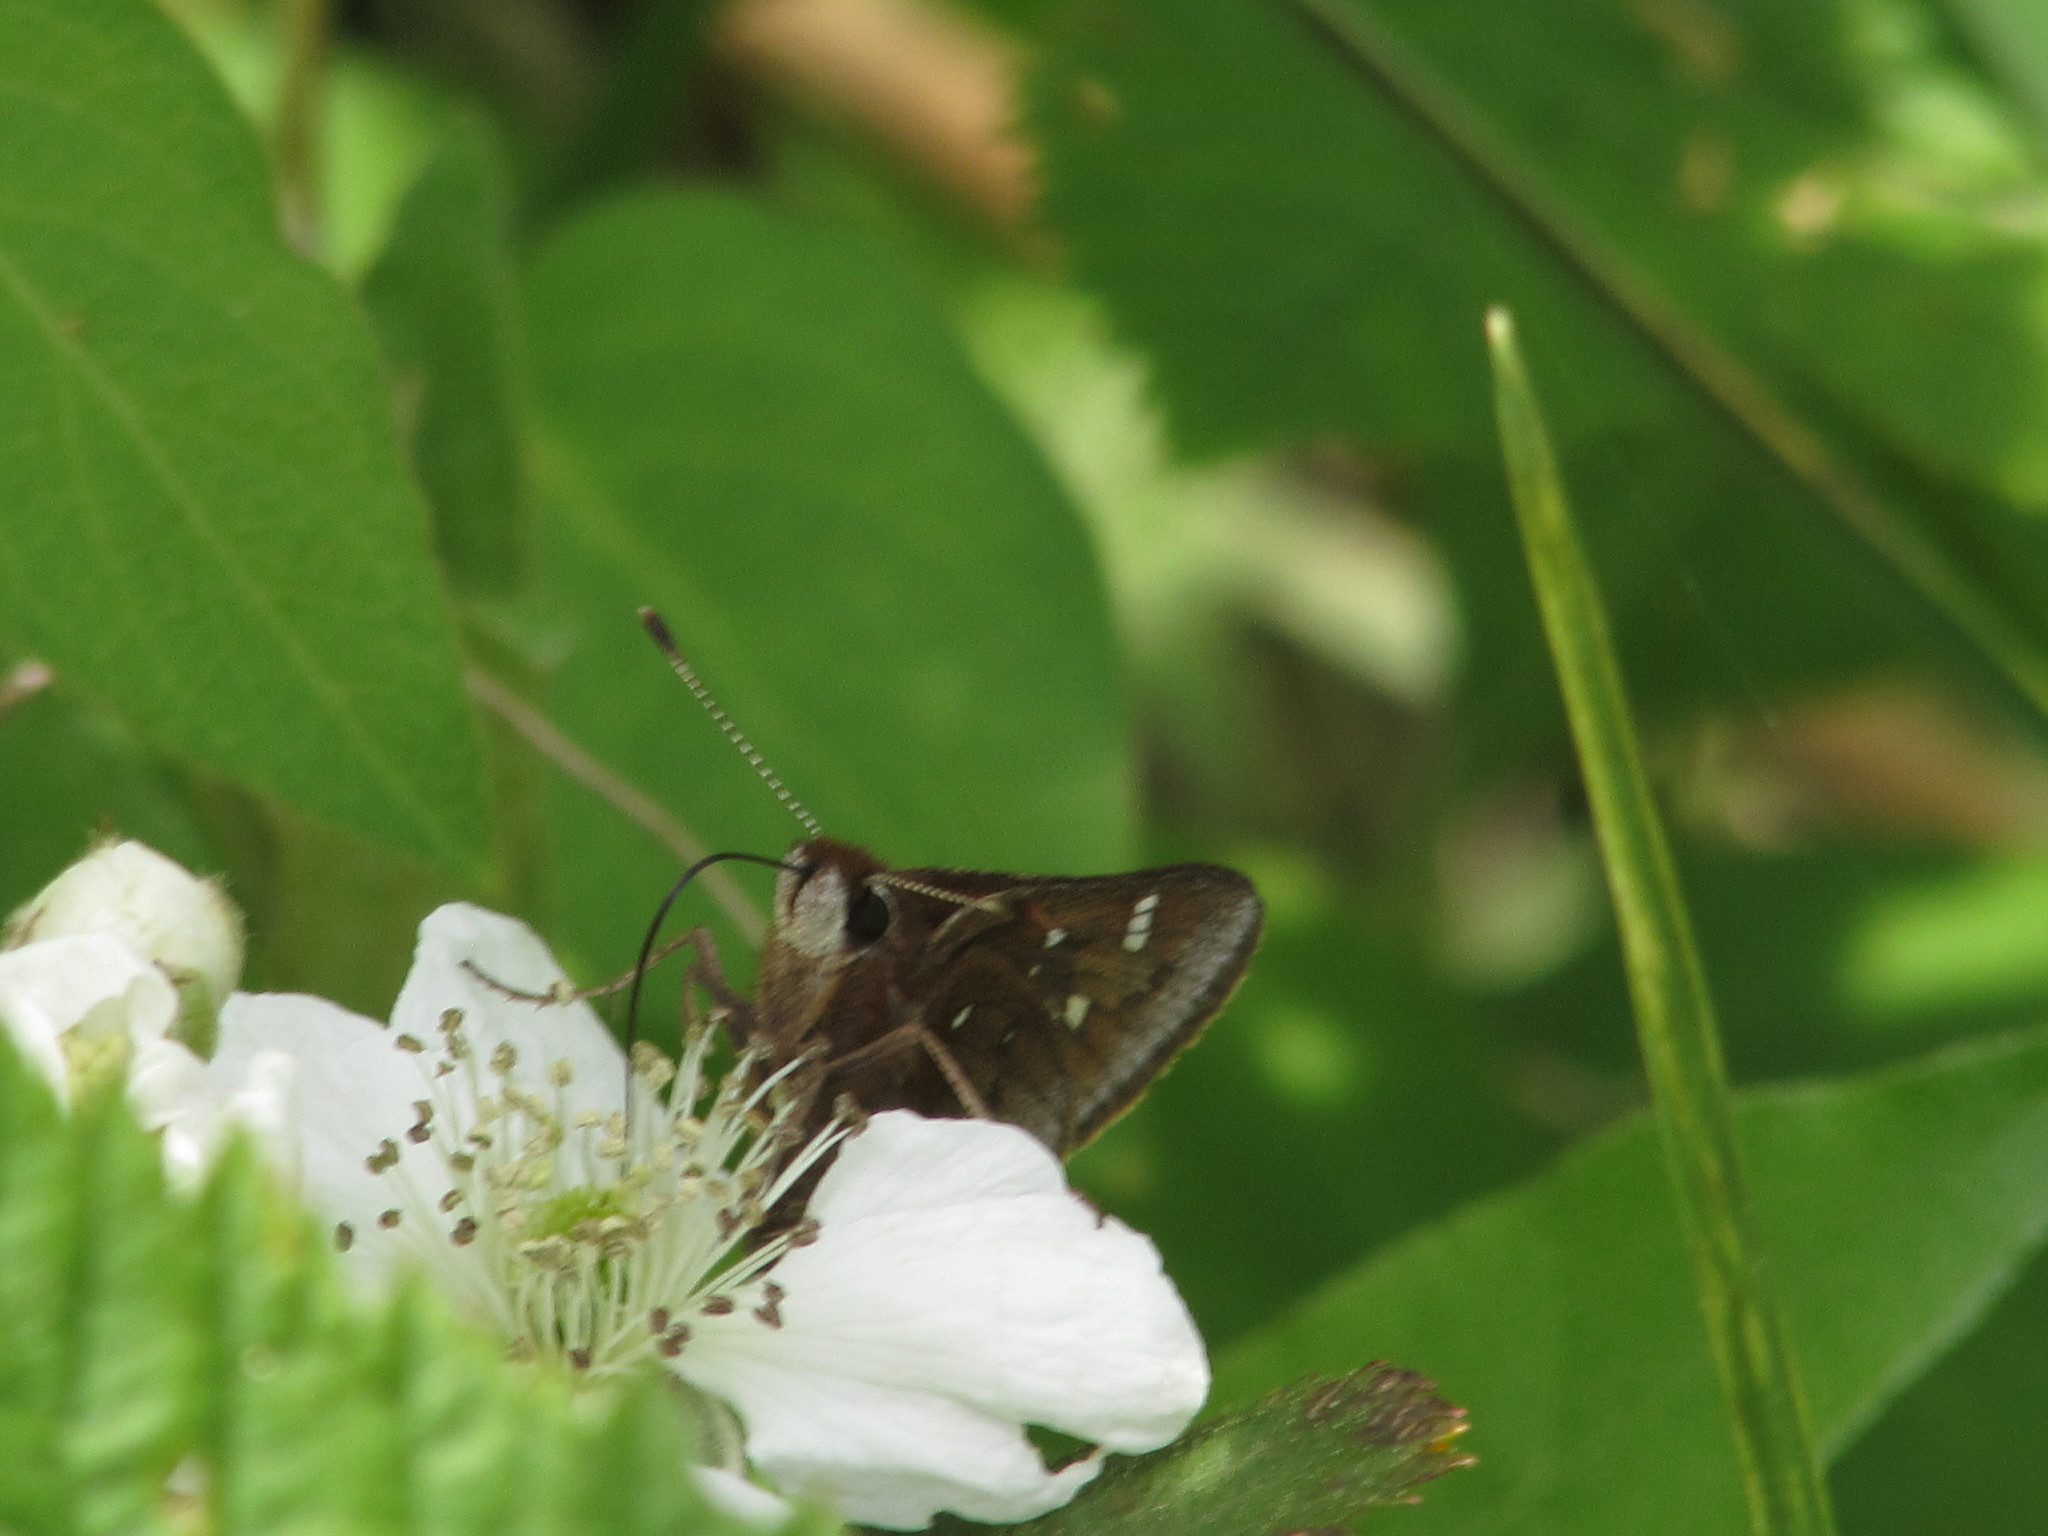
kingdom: Animalia
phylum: Arthropoda
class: Insecta
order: Lepidoptera
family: Hesperiidae
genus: Atrytonopsis
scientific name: Atrytonopsis hianna
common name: Dusted skipper
